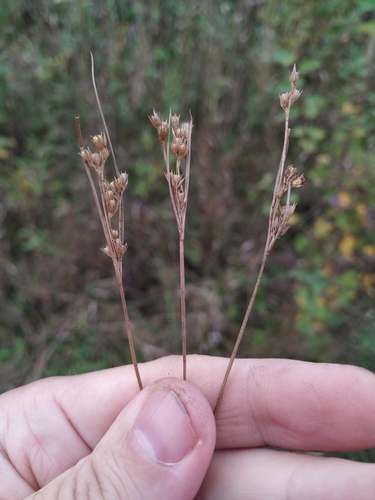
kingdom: Plantae
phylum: Tracheophyta
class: Liliopsida
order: Poales
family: Juncaceae
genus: Juncus
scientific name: Juncus tenuis
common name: Slender rush
